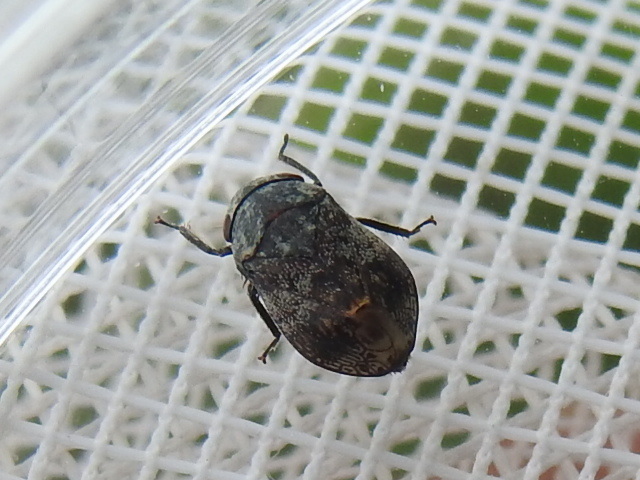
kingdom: Animalia
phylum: Arthropoda
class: Insecta
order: Hemiptera
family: Cicadellidae
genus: Penthimia
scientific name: Penthimia americana
